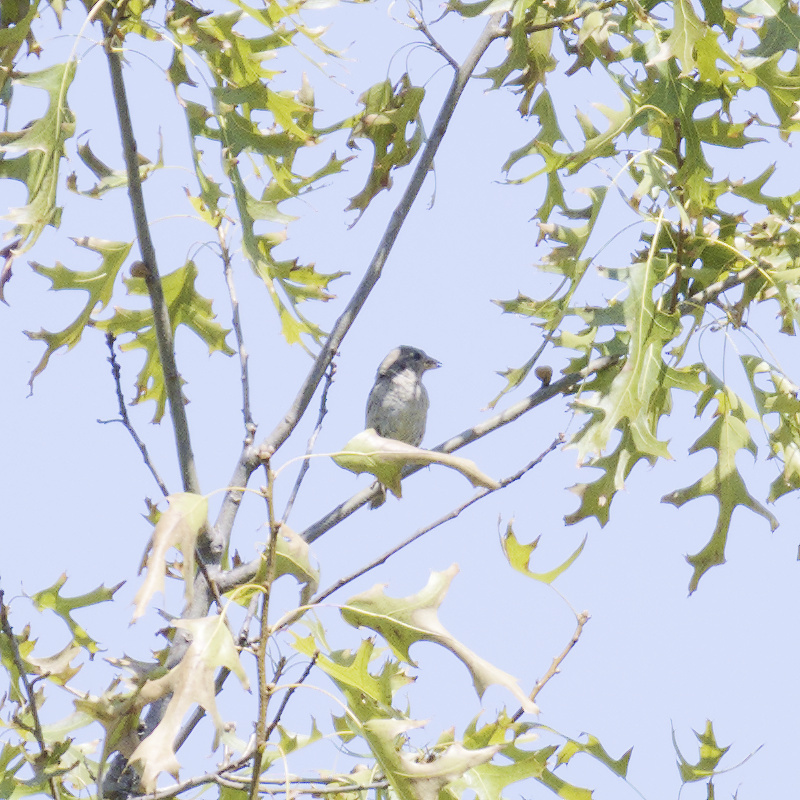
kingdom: Animalia
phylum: Chordata
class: Aves
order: Passeriformes
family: Passeridae
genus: Passer
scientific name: Passer domesticus
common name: House sparrow
